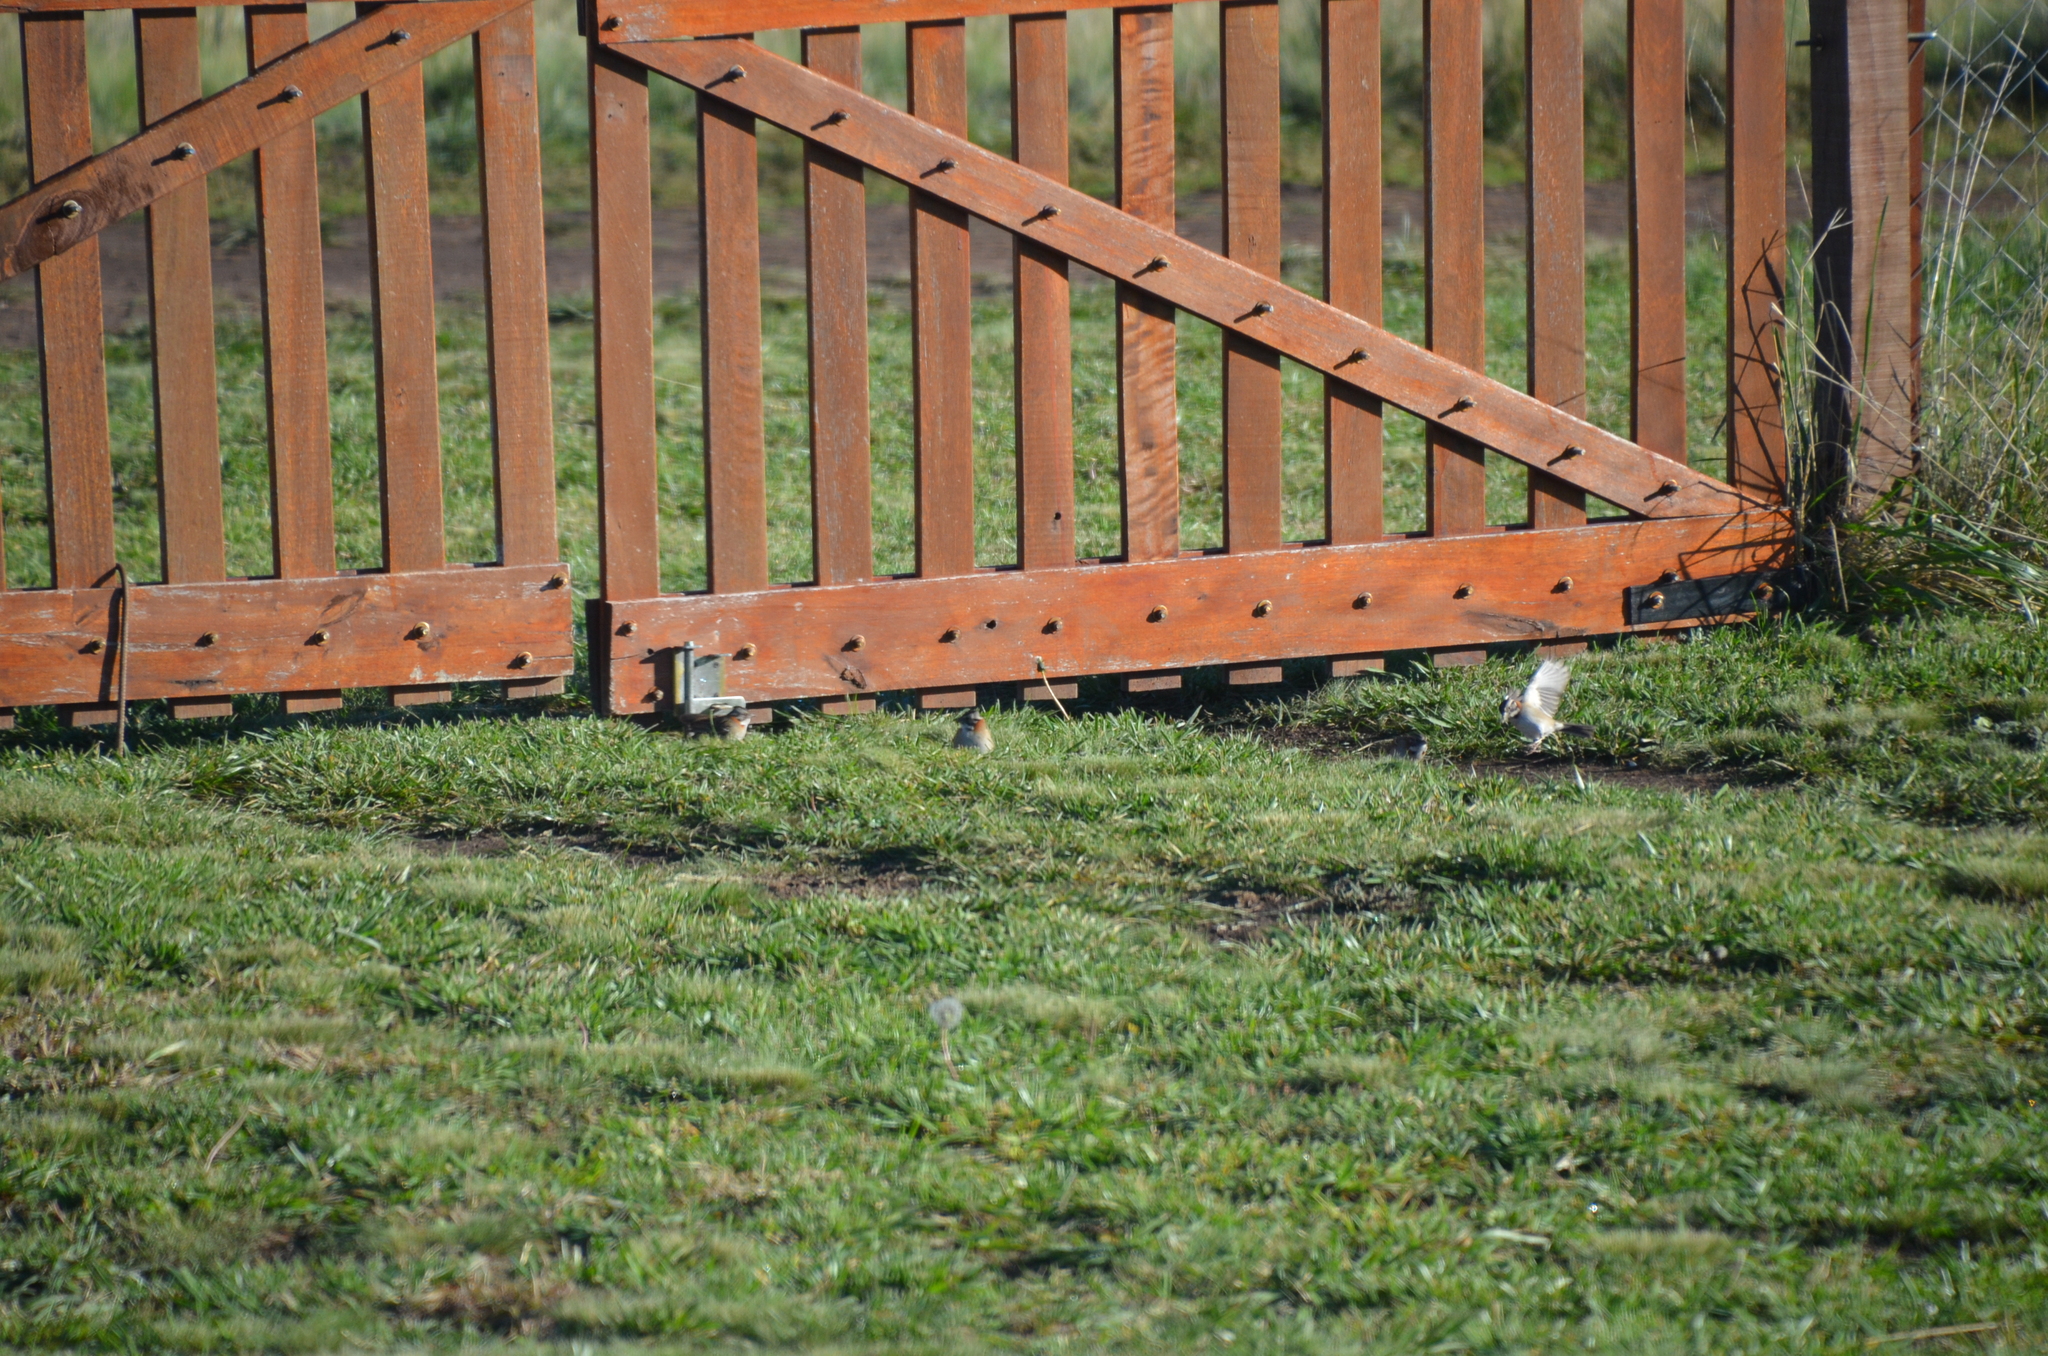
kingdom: Animalia
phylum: Chordata
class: Aves
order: Passeriformes
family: Passerellidae
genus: Zonotrichia
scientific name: Zonotrichia capensis
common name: Rufous-collared sparrow
